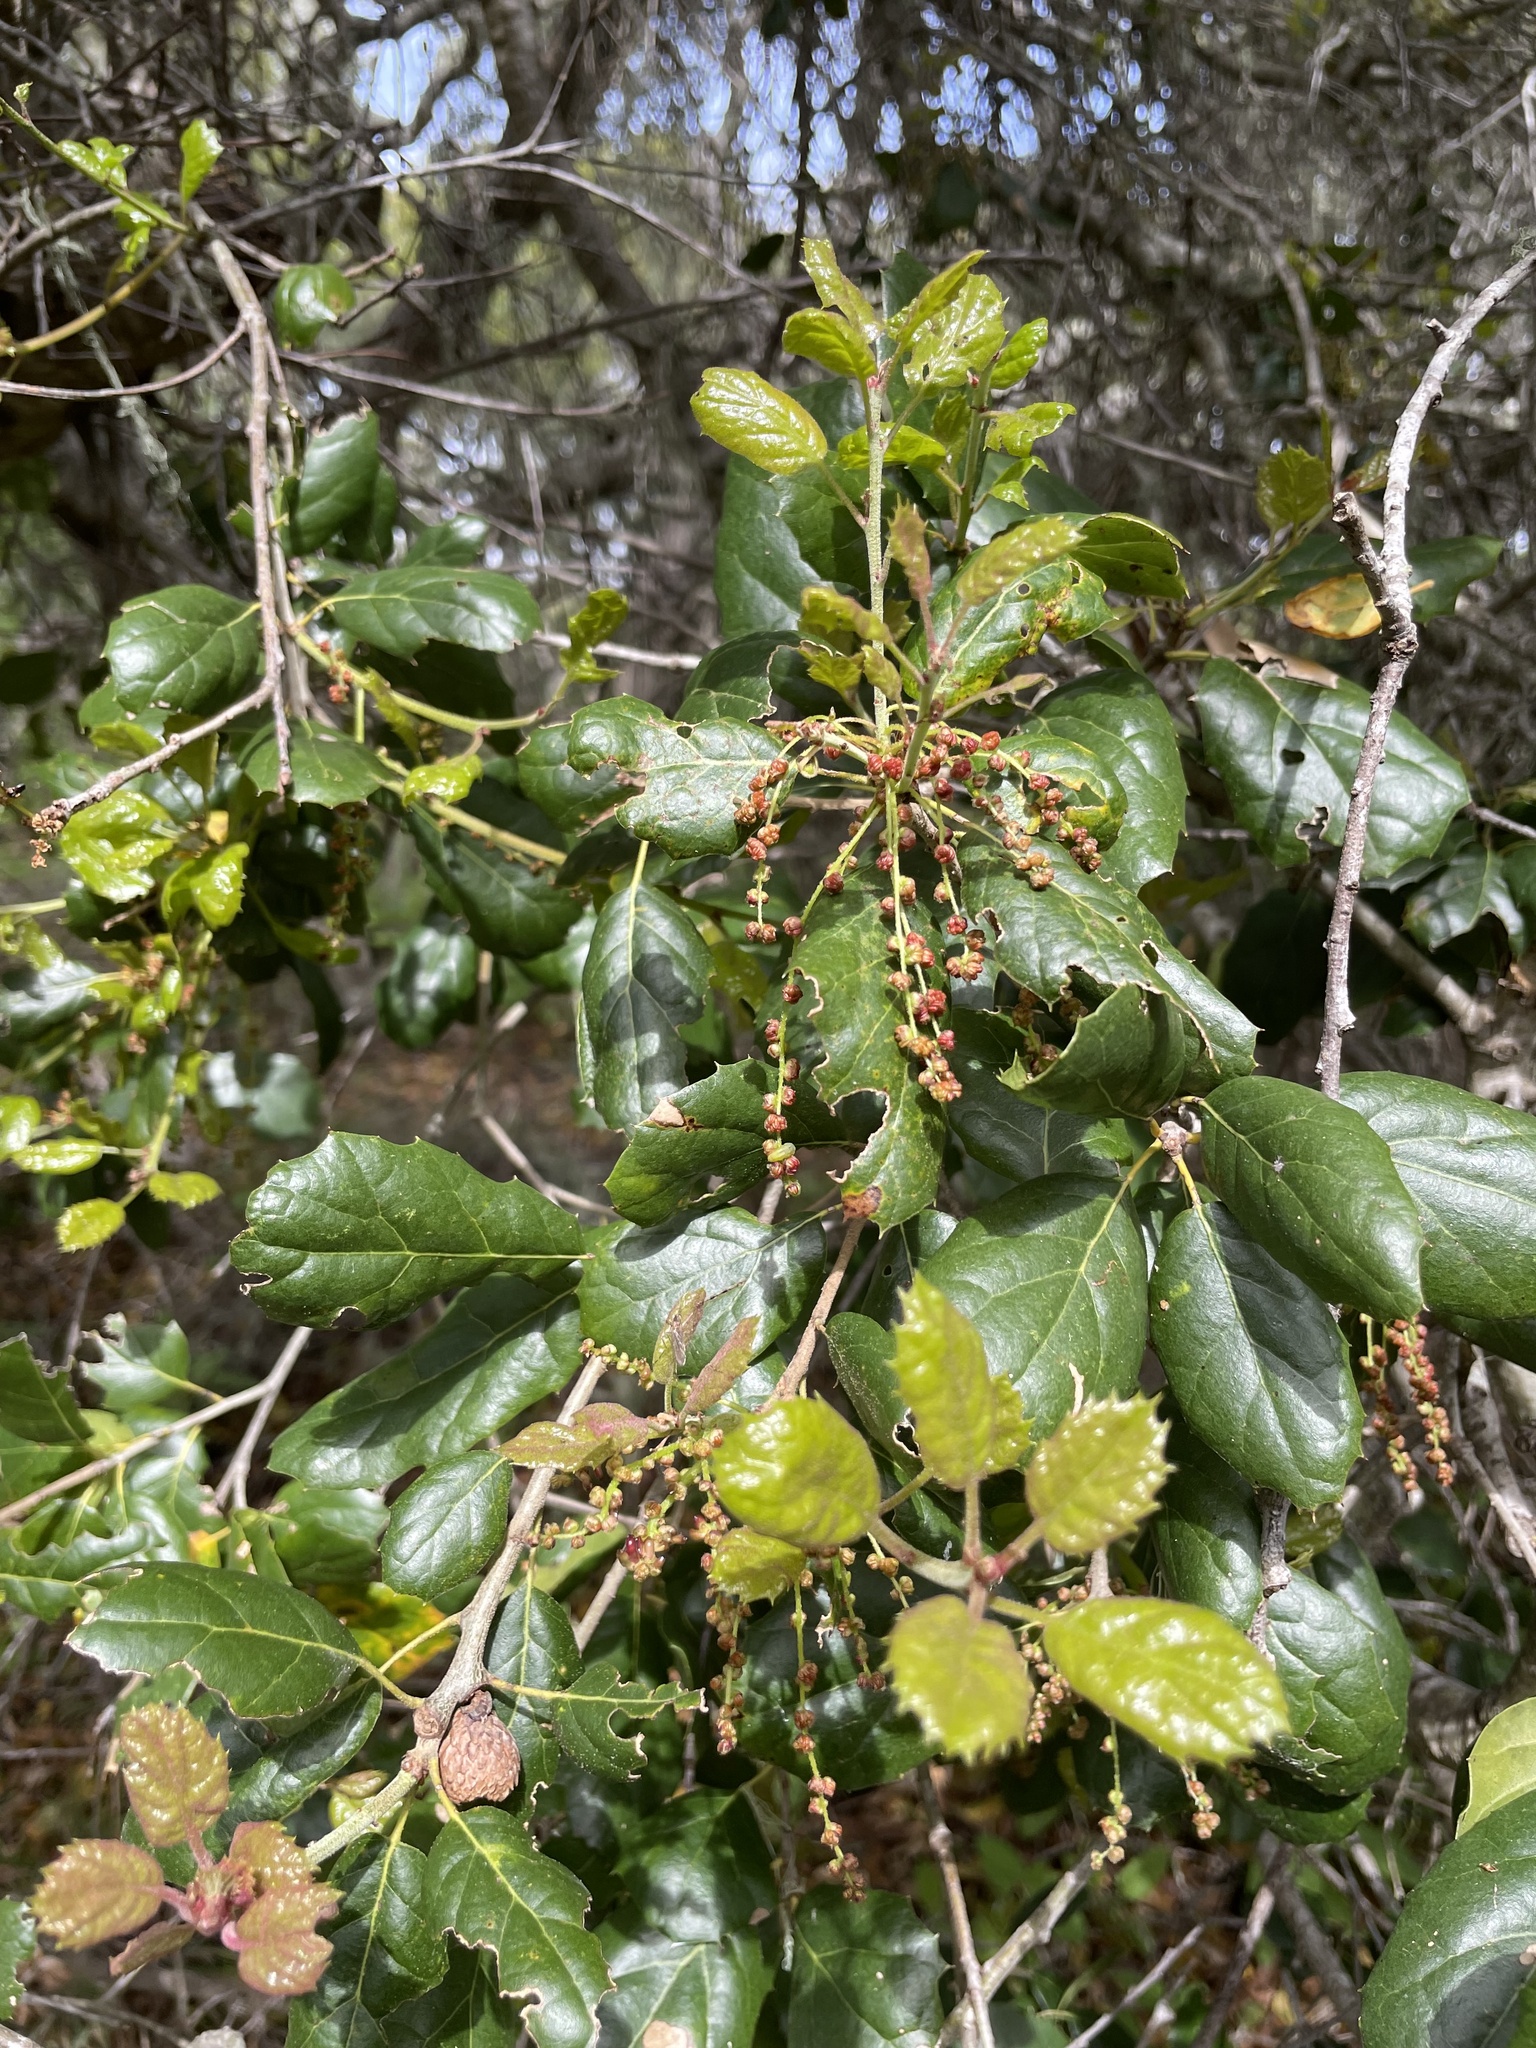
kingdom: Plantae
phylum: Tracheophyta
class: Magnoliopsida
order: Fagales
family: Fagaceae
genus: Quercus
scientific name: Quercus agrifolia
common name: California live oak
